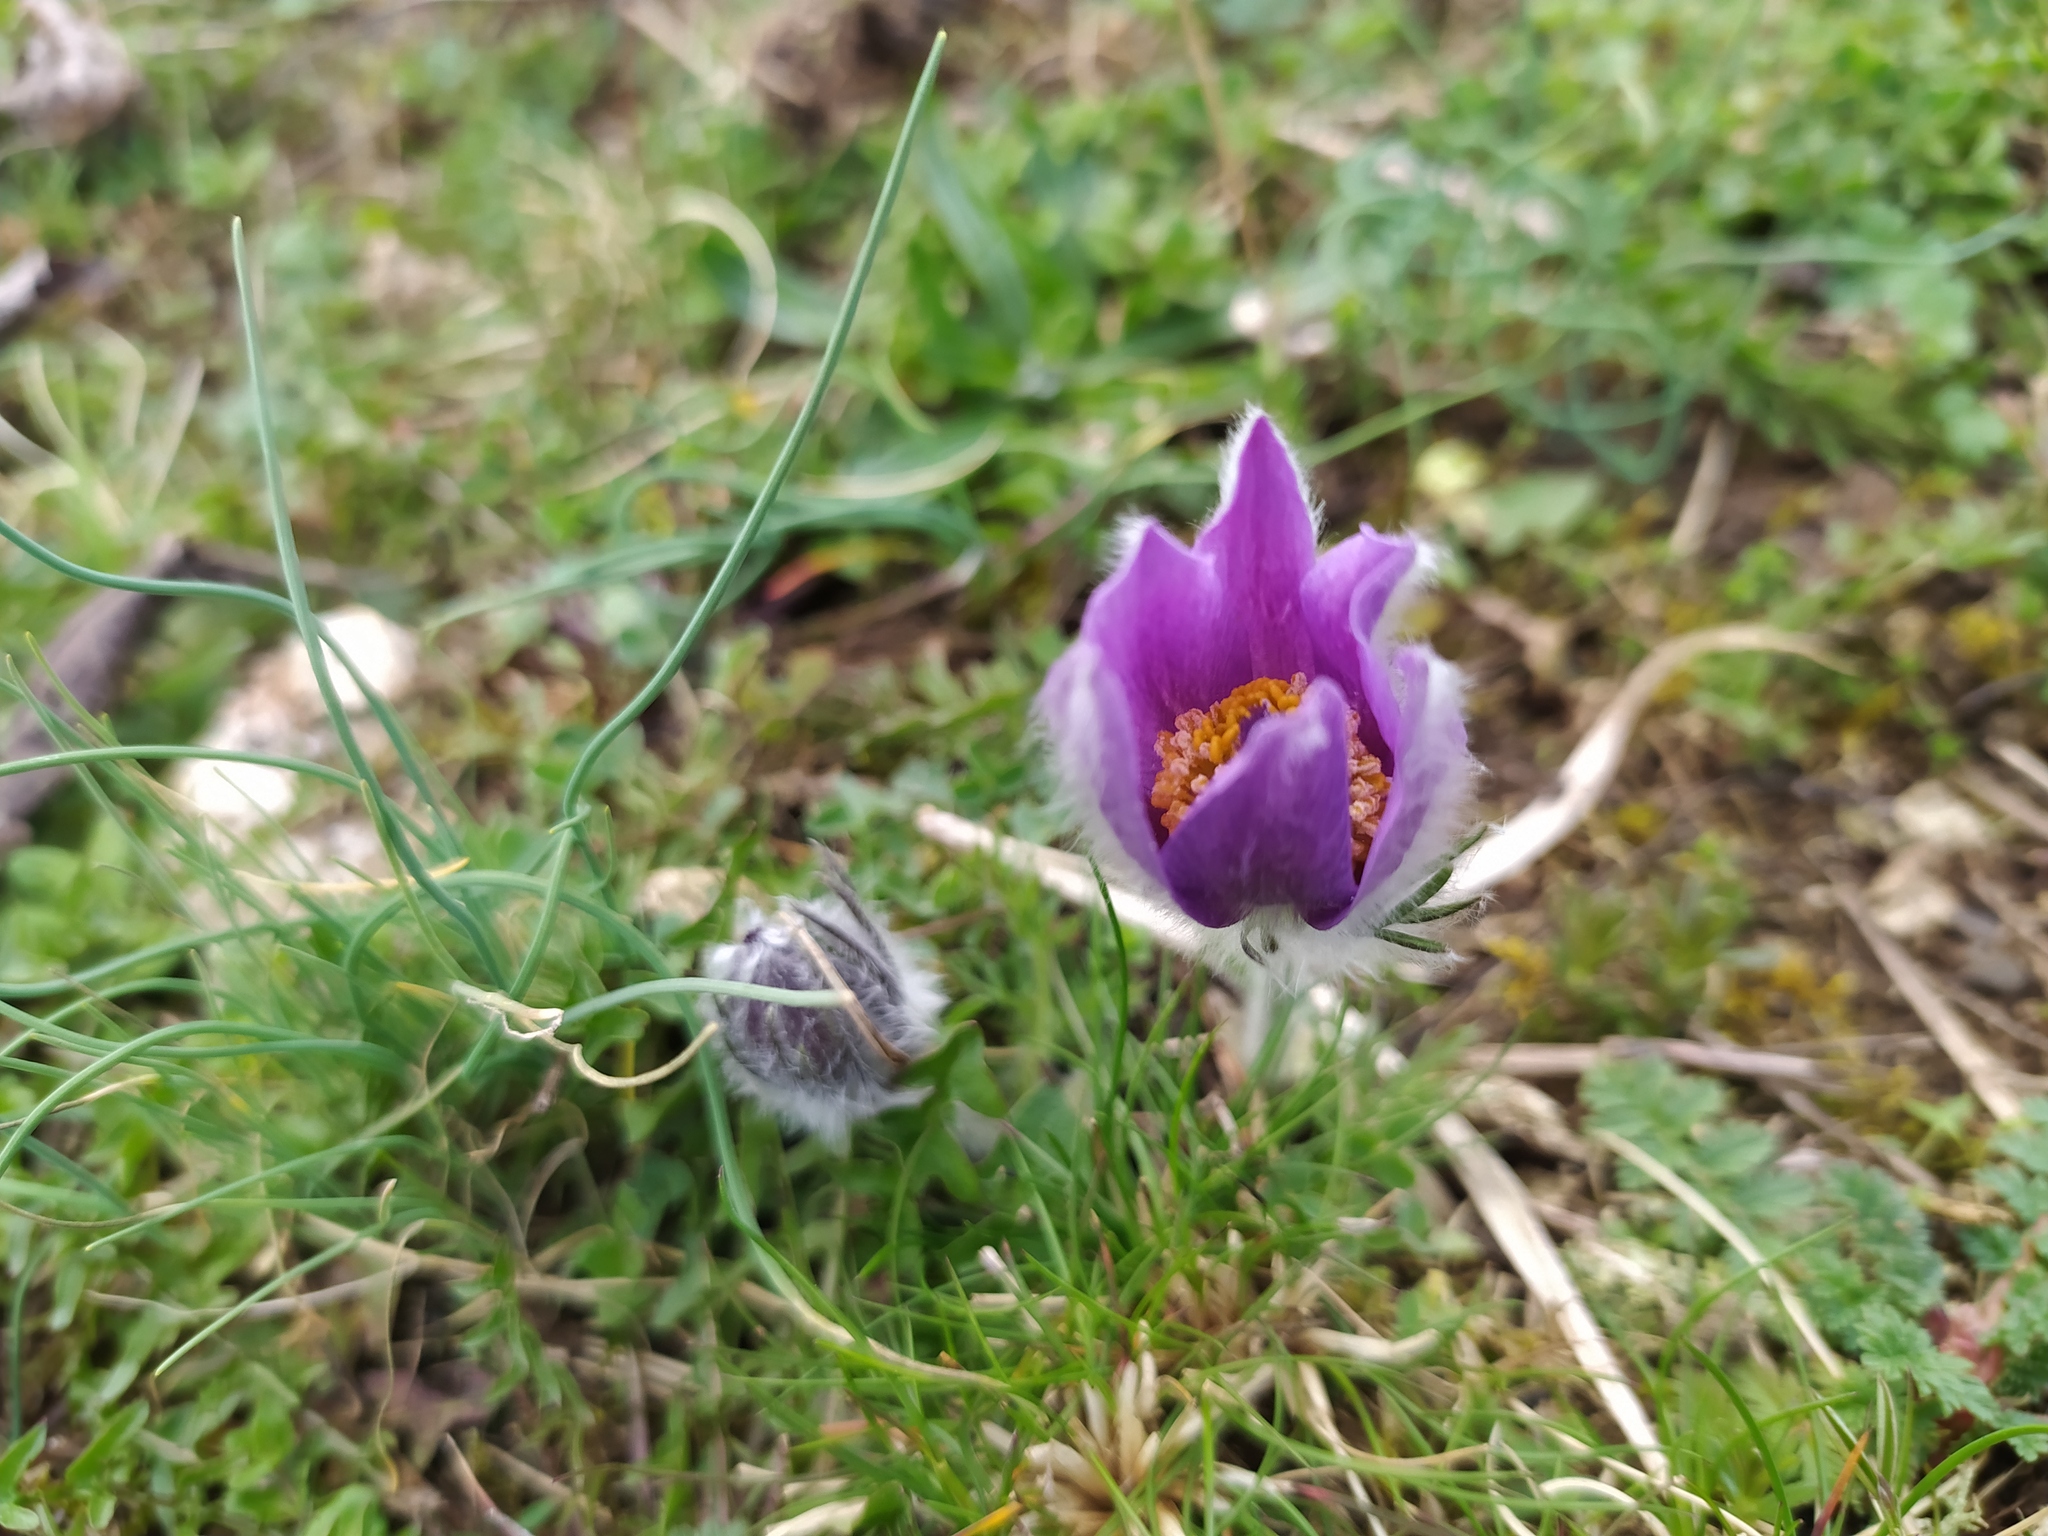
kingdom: Plantae
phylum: Tracheophyta
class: Magnoliopsida
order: Ranunculales
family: Ranunculaceae
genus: Pulsatilla
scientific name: Pulsatilla vulgaris
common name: Pasqueflower
